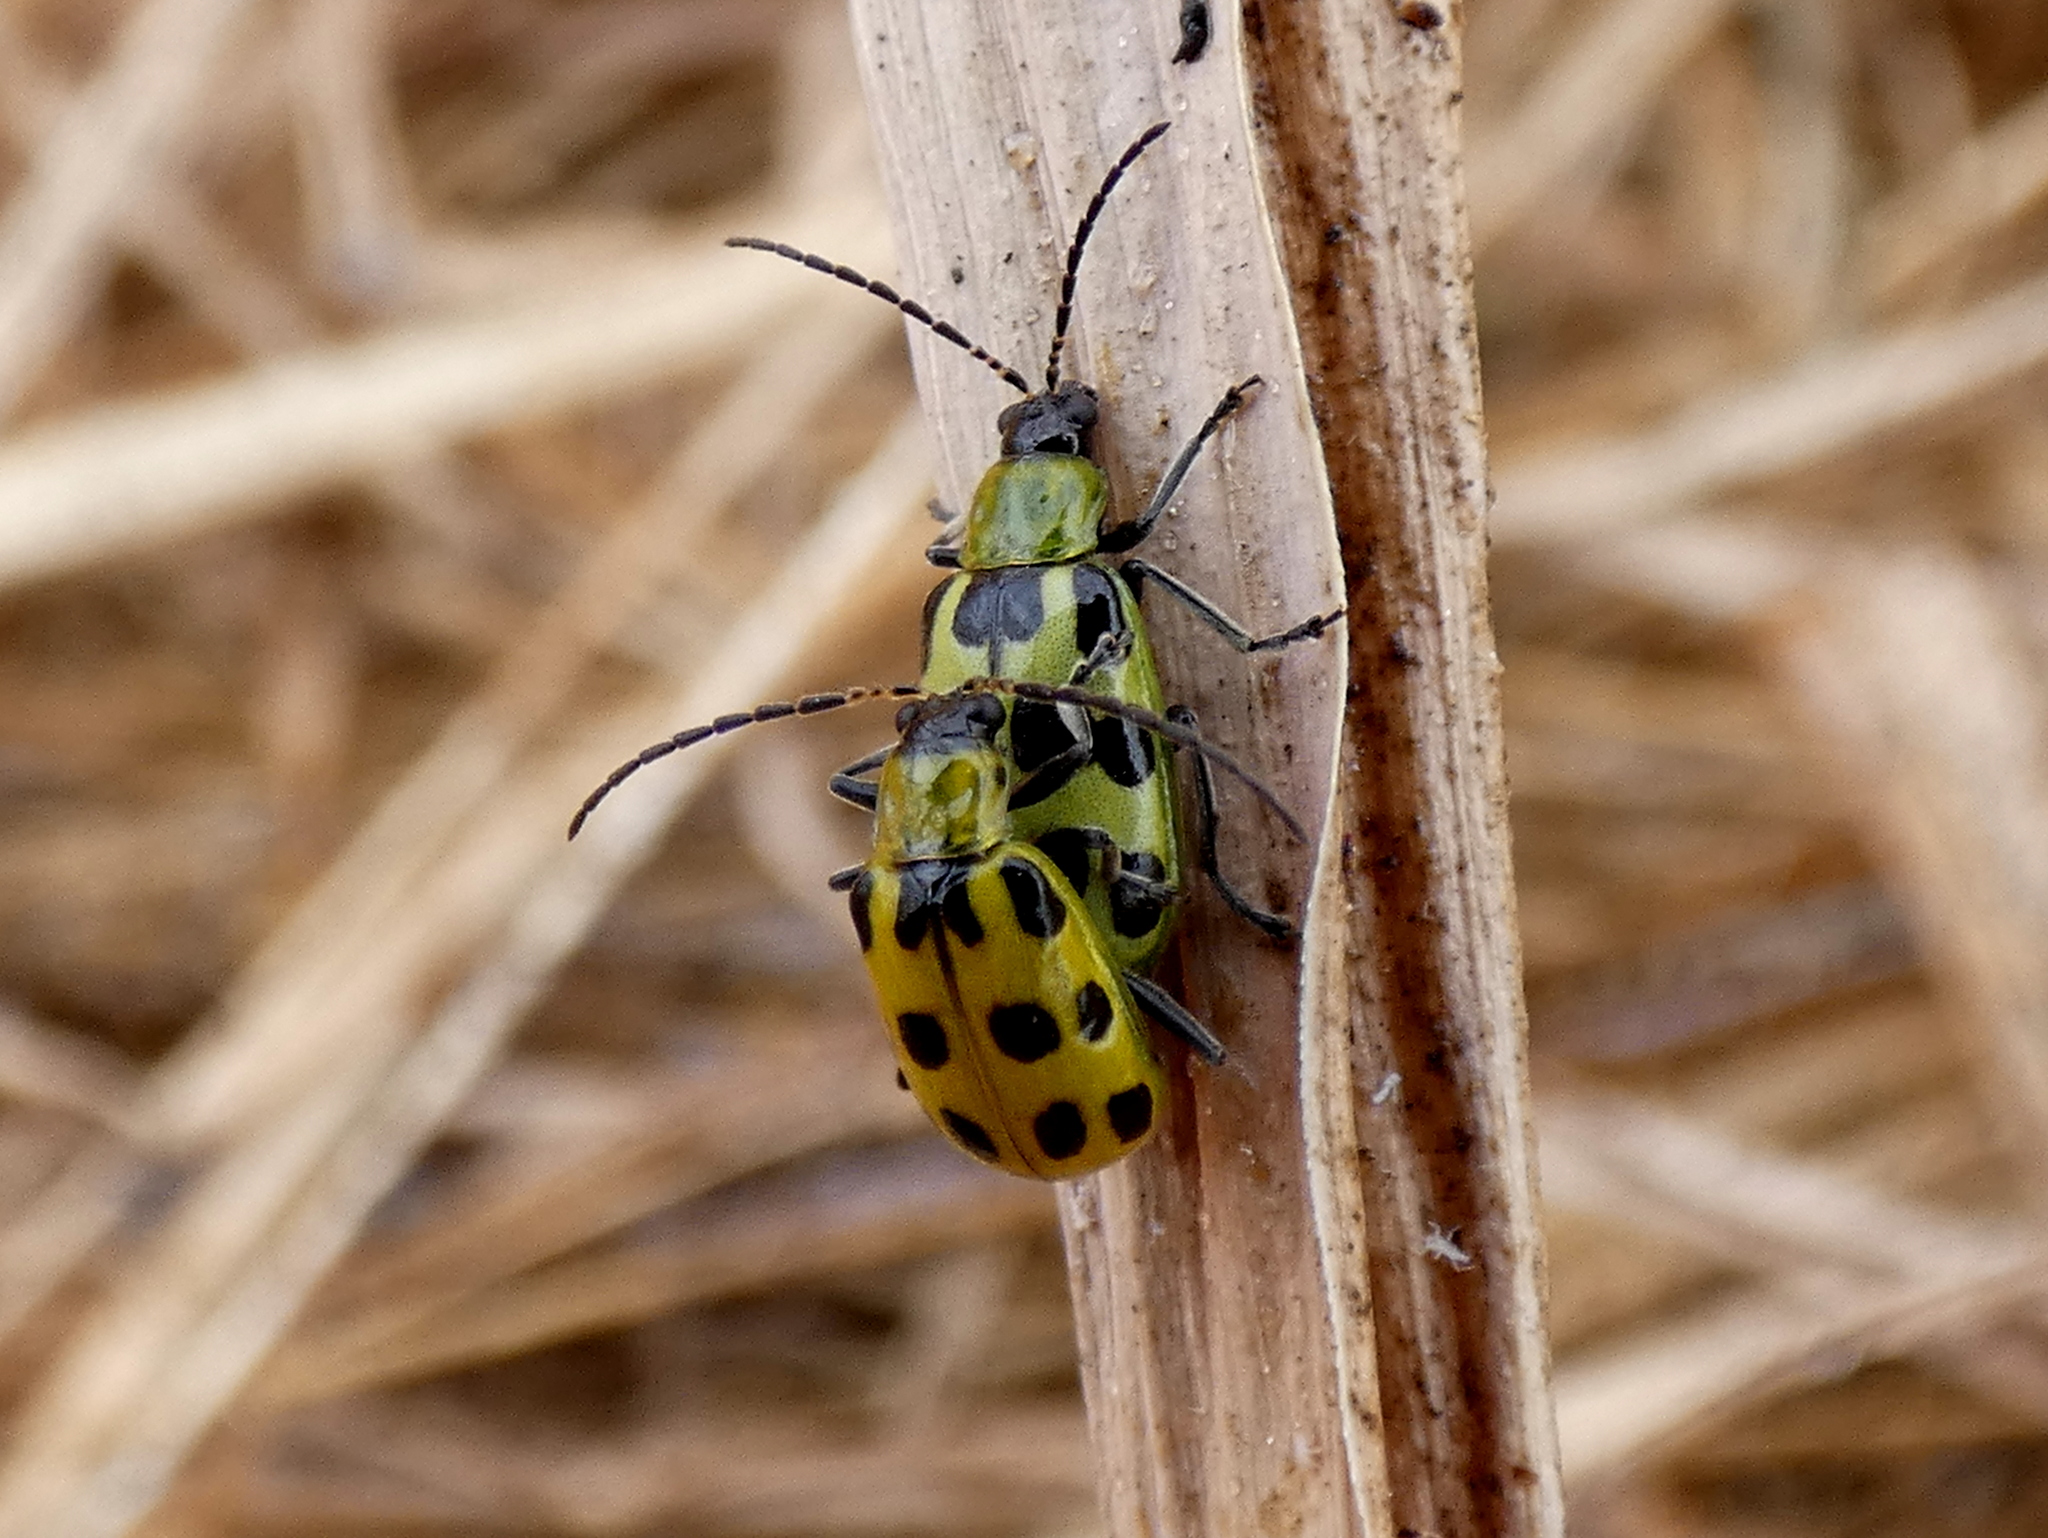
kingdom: Animalia
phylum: Arthropoda
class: Insecta
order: Coleoptera
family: Chrysomelidae
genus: Diabrotica
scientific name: Diabrotica undecimpunctata
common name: Spotted cucumber beetle
